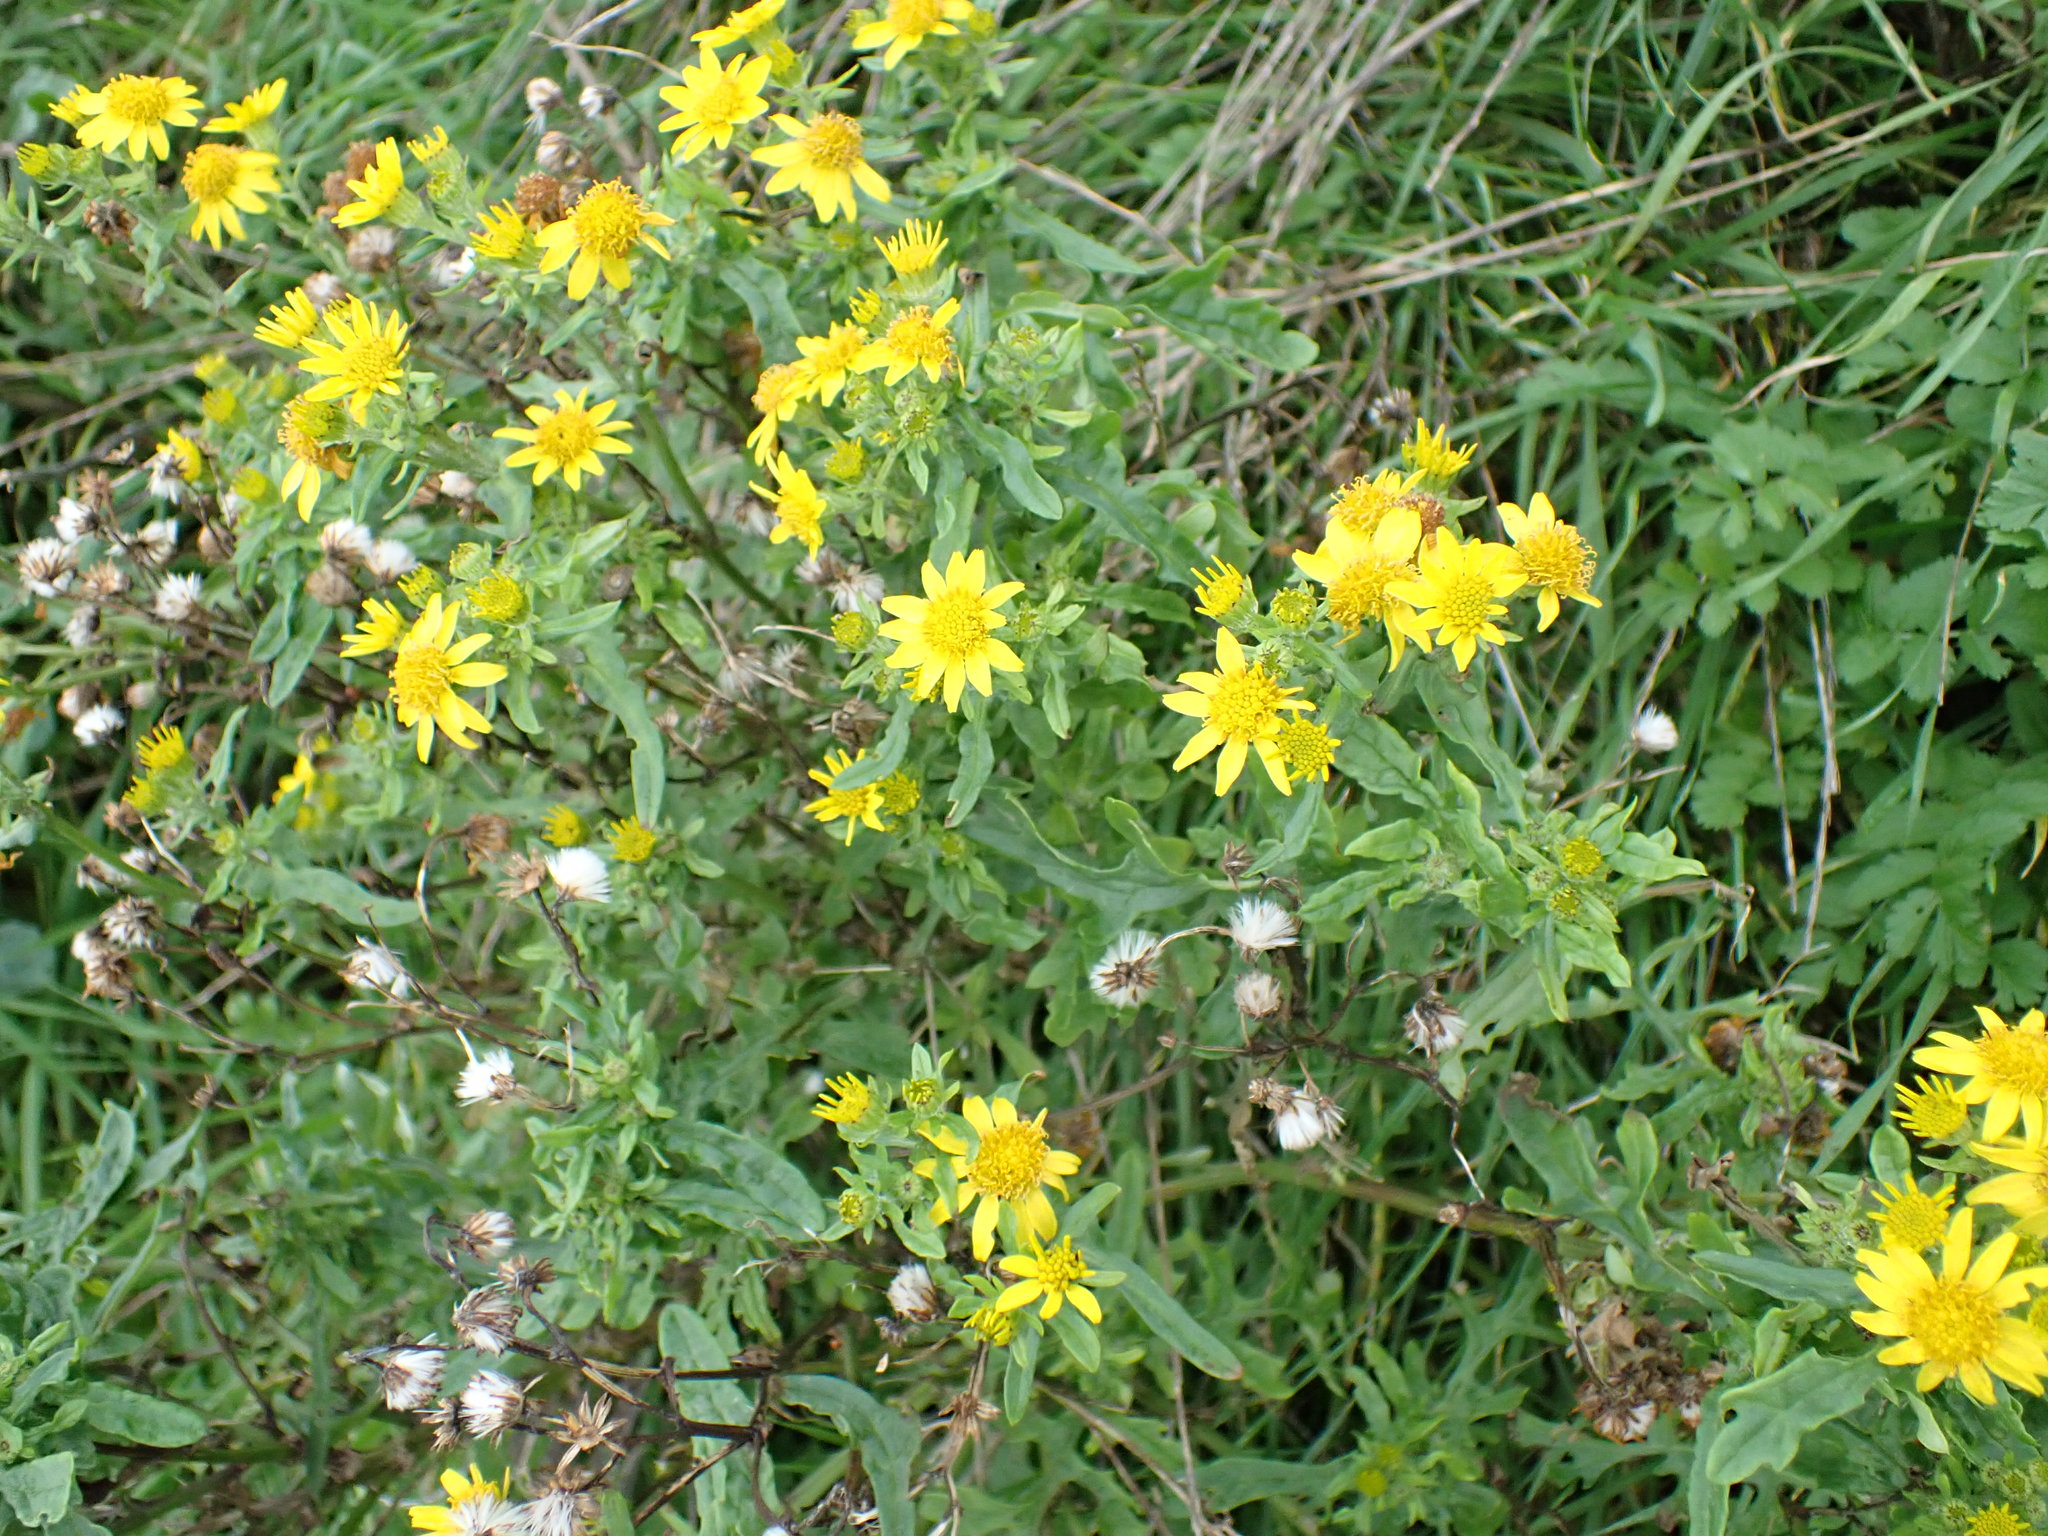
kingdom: Plantae
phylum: Tracheophyta
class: Magnoliopsida
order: Asterales
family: Asteraceae
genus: Jacobaea
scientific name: Jacobaea vulgaris
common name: Stinking willie
